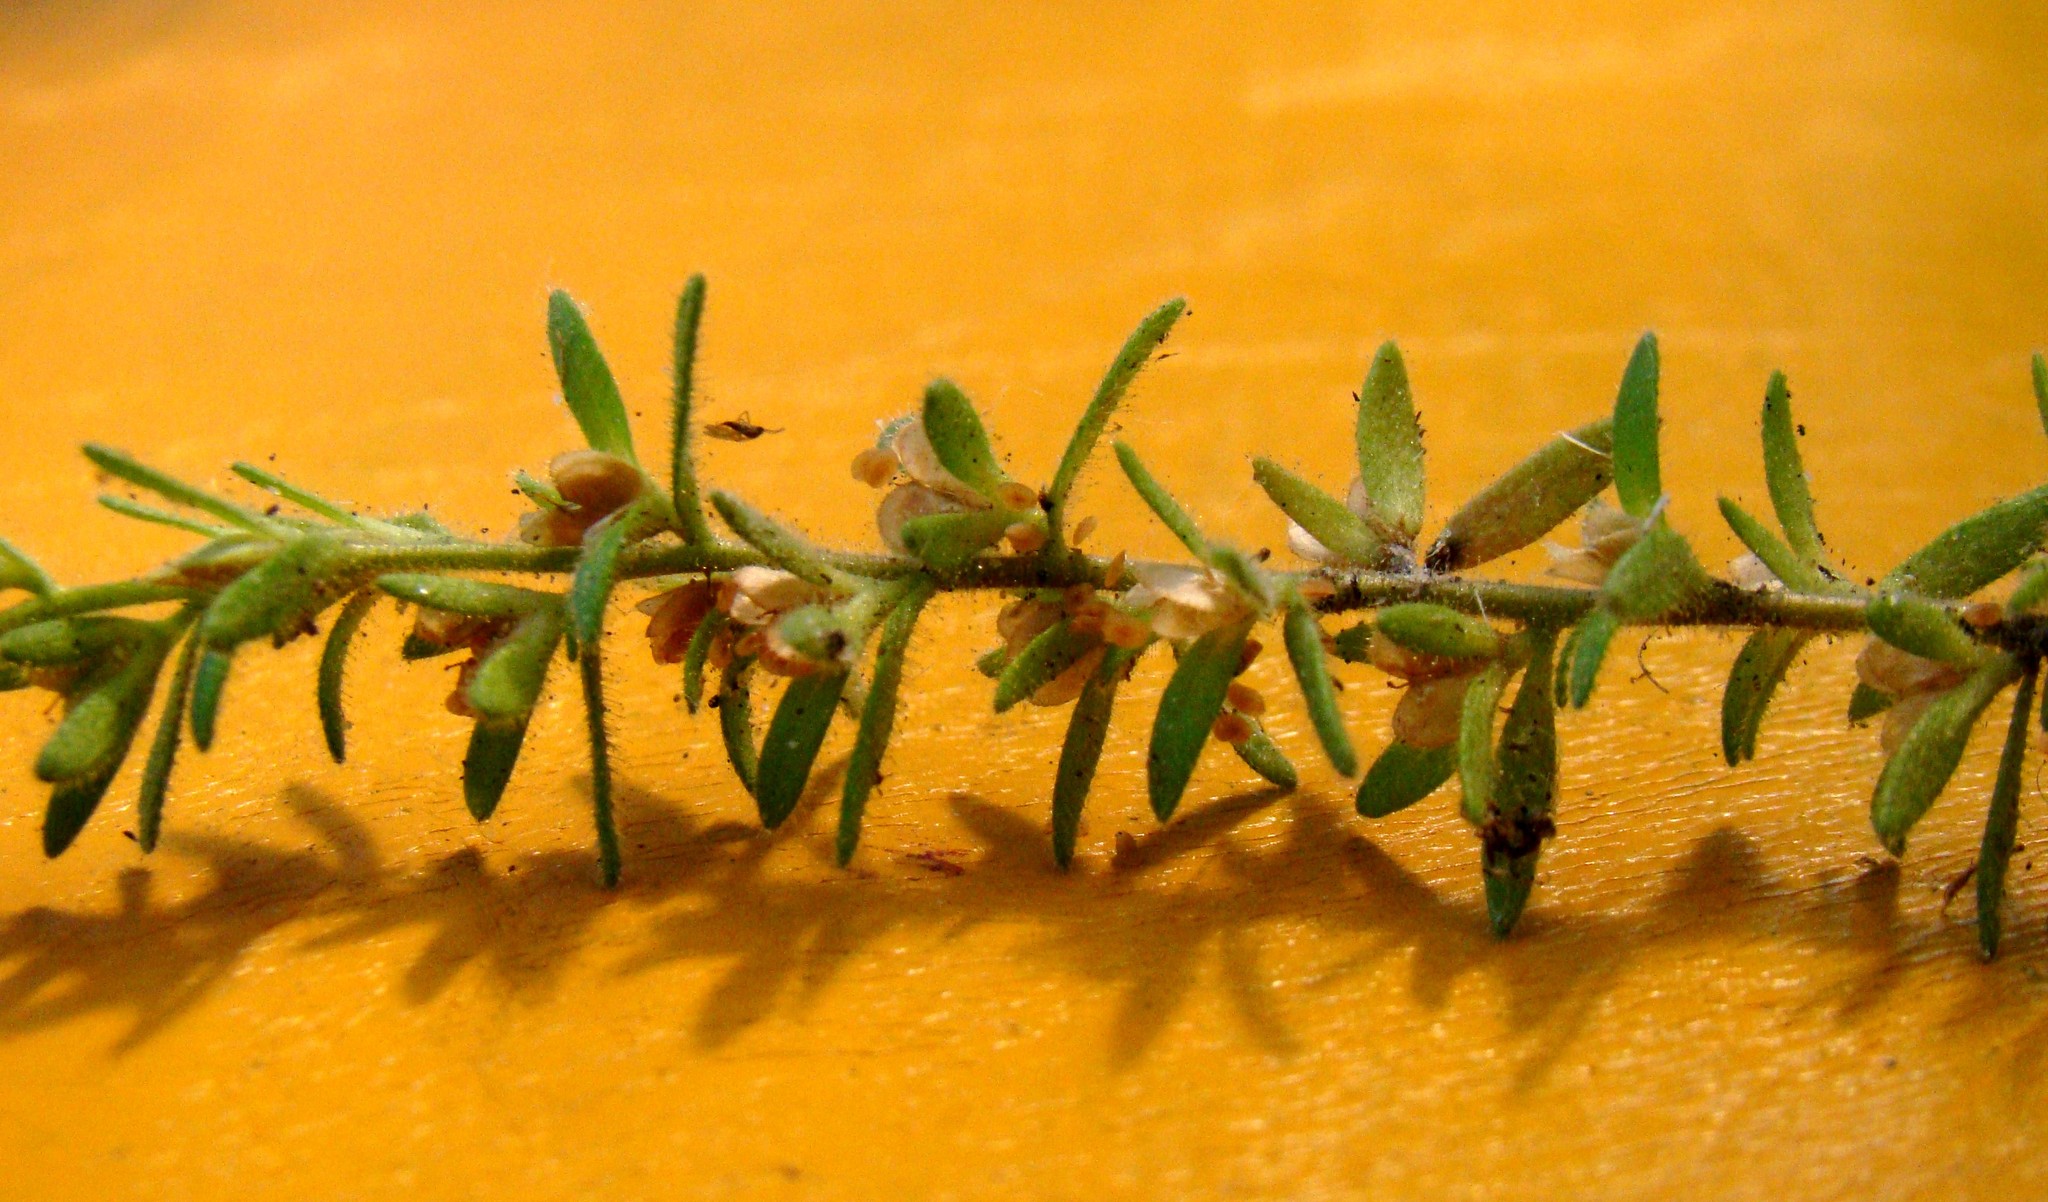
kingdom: Plantae
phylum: Tracheophyta
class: Magnoliopsida
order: Lamiales
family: Plantaginaceae
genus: Veronica
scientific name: Veronica arvensis
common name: Corn speedwell
